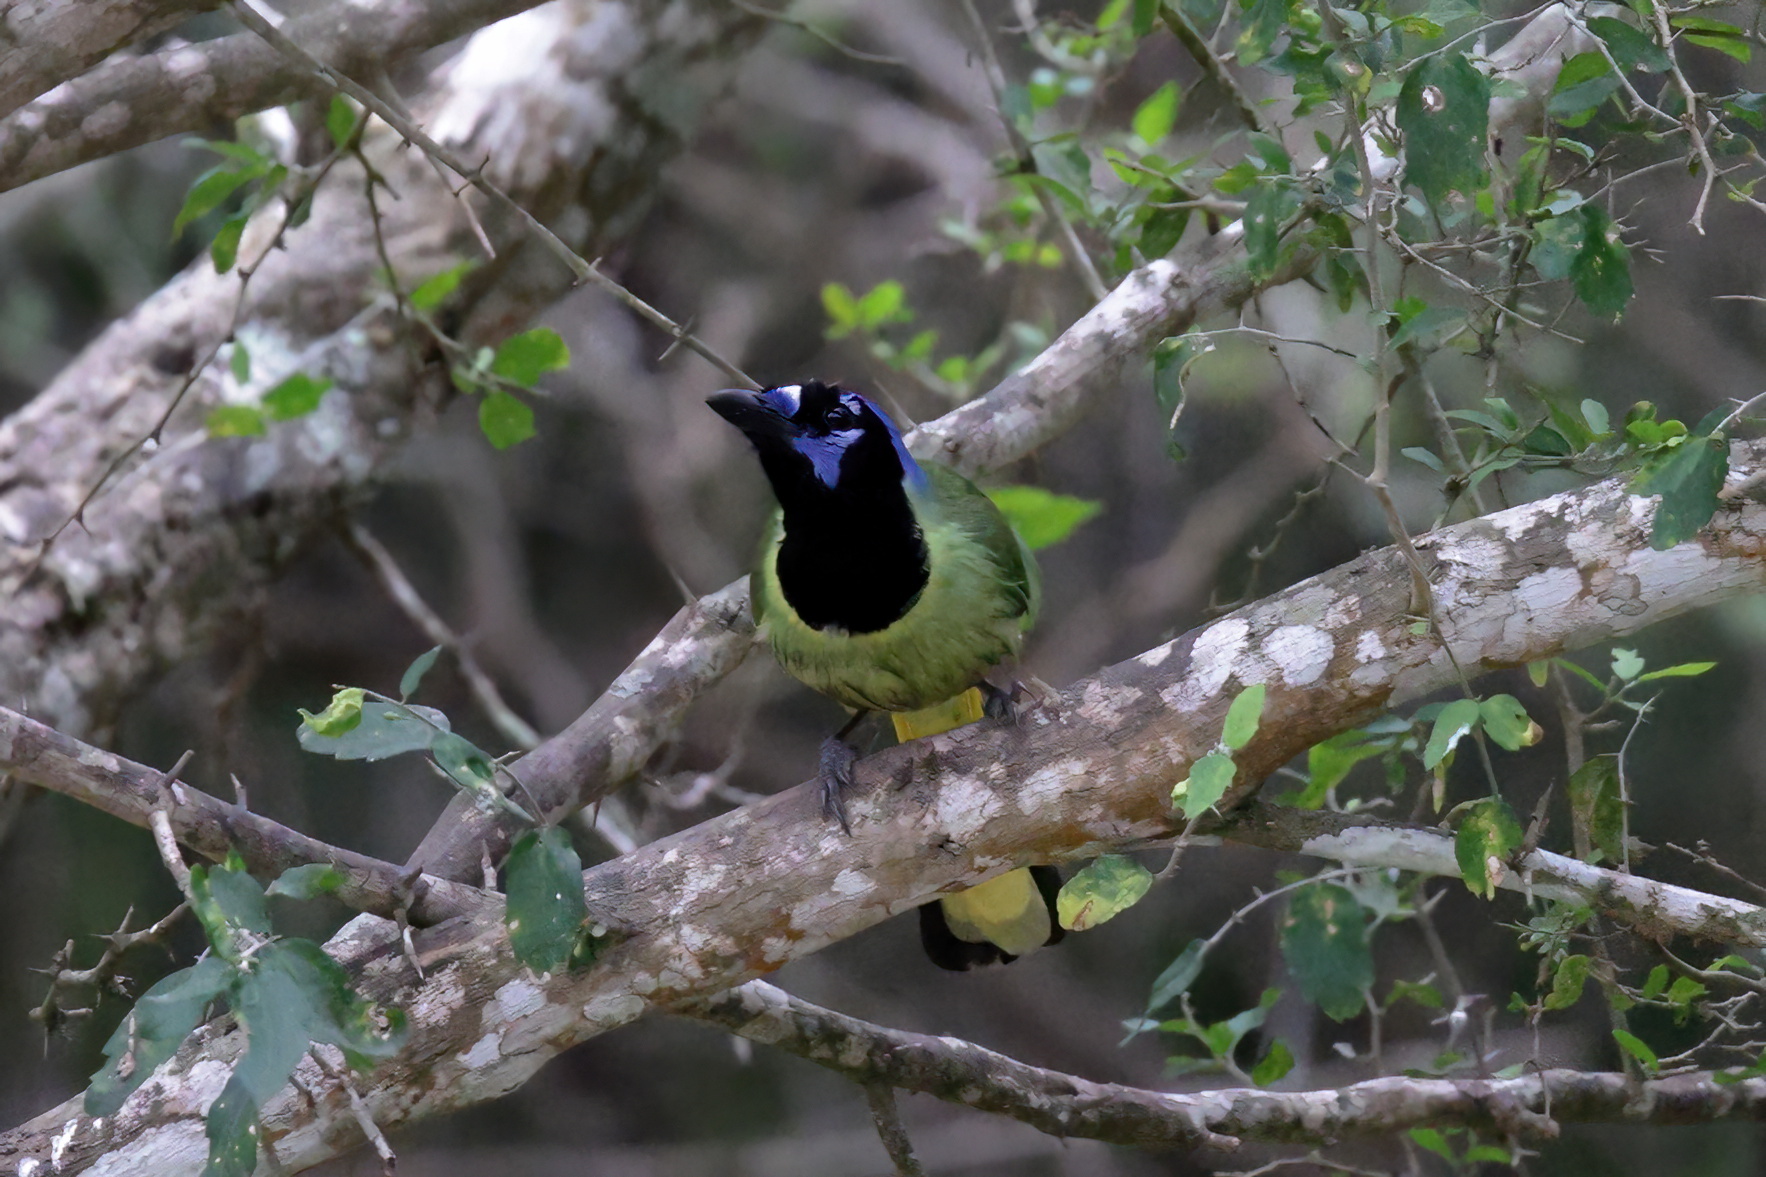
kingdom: Animalia
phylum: Chordata
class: Aves
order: Passeriformes
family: Corvidae
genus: Cyanocorax
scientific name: Cyanocorax yncas
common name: Green jay
